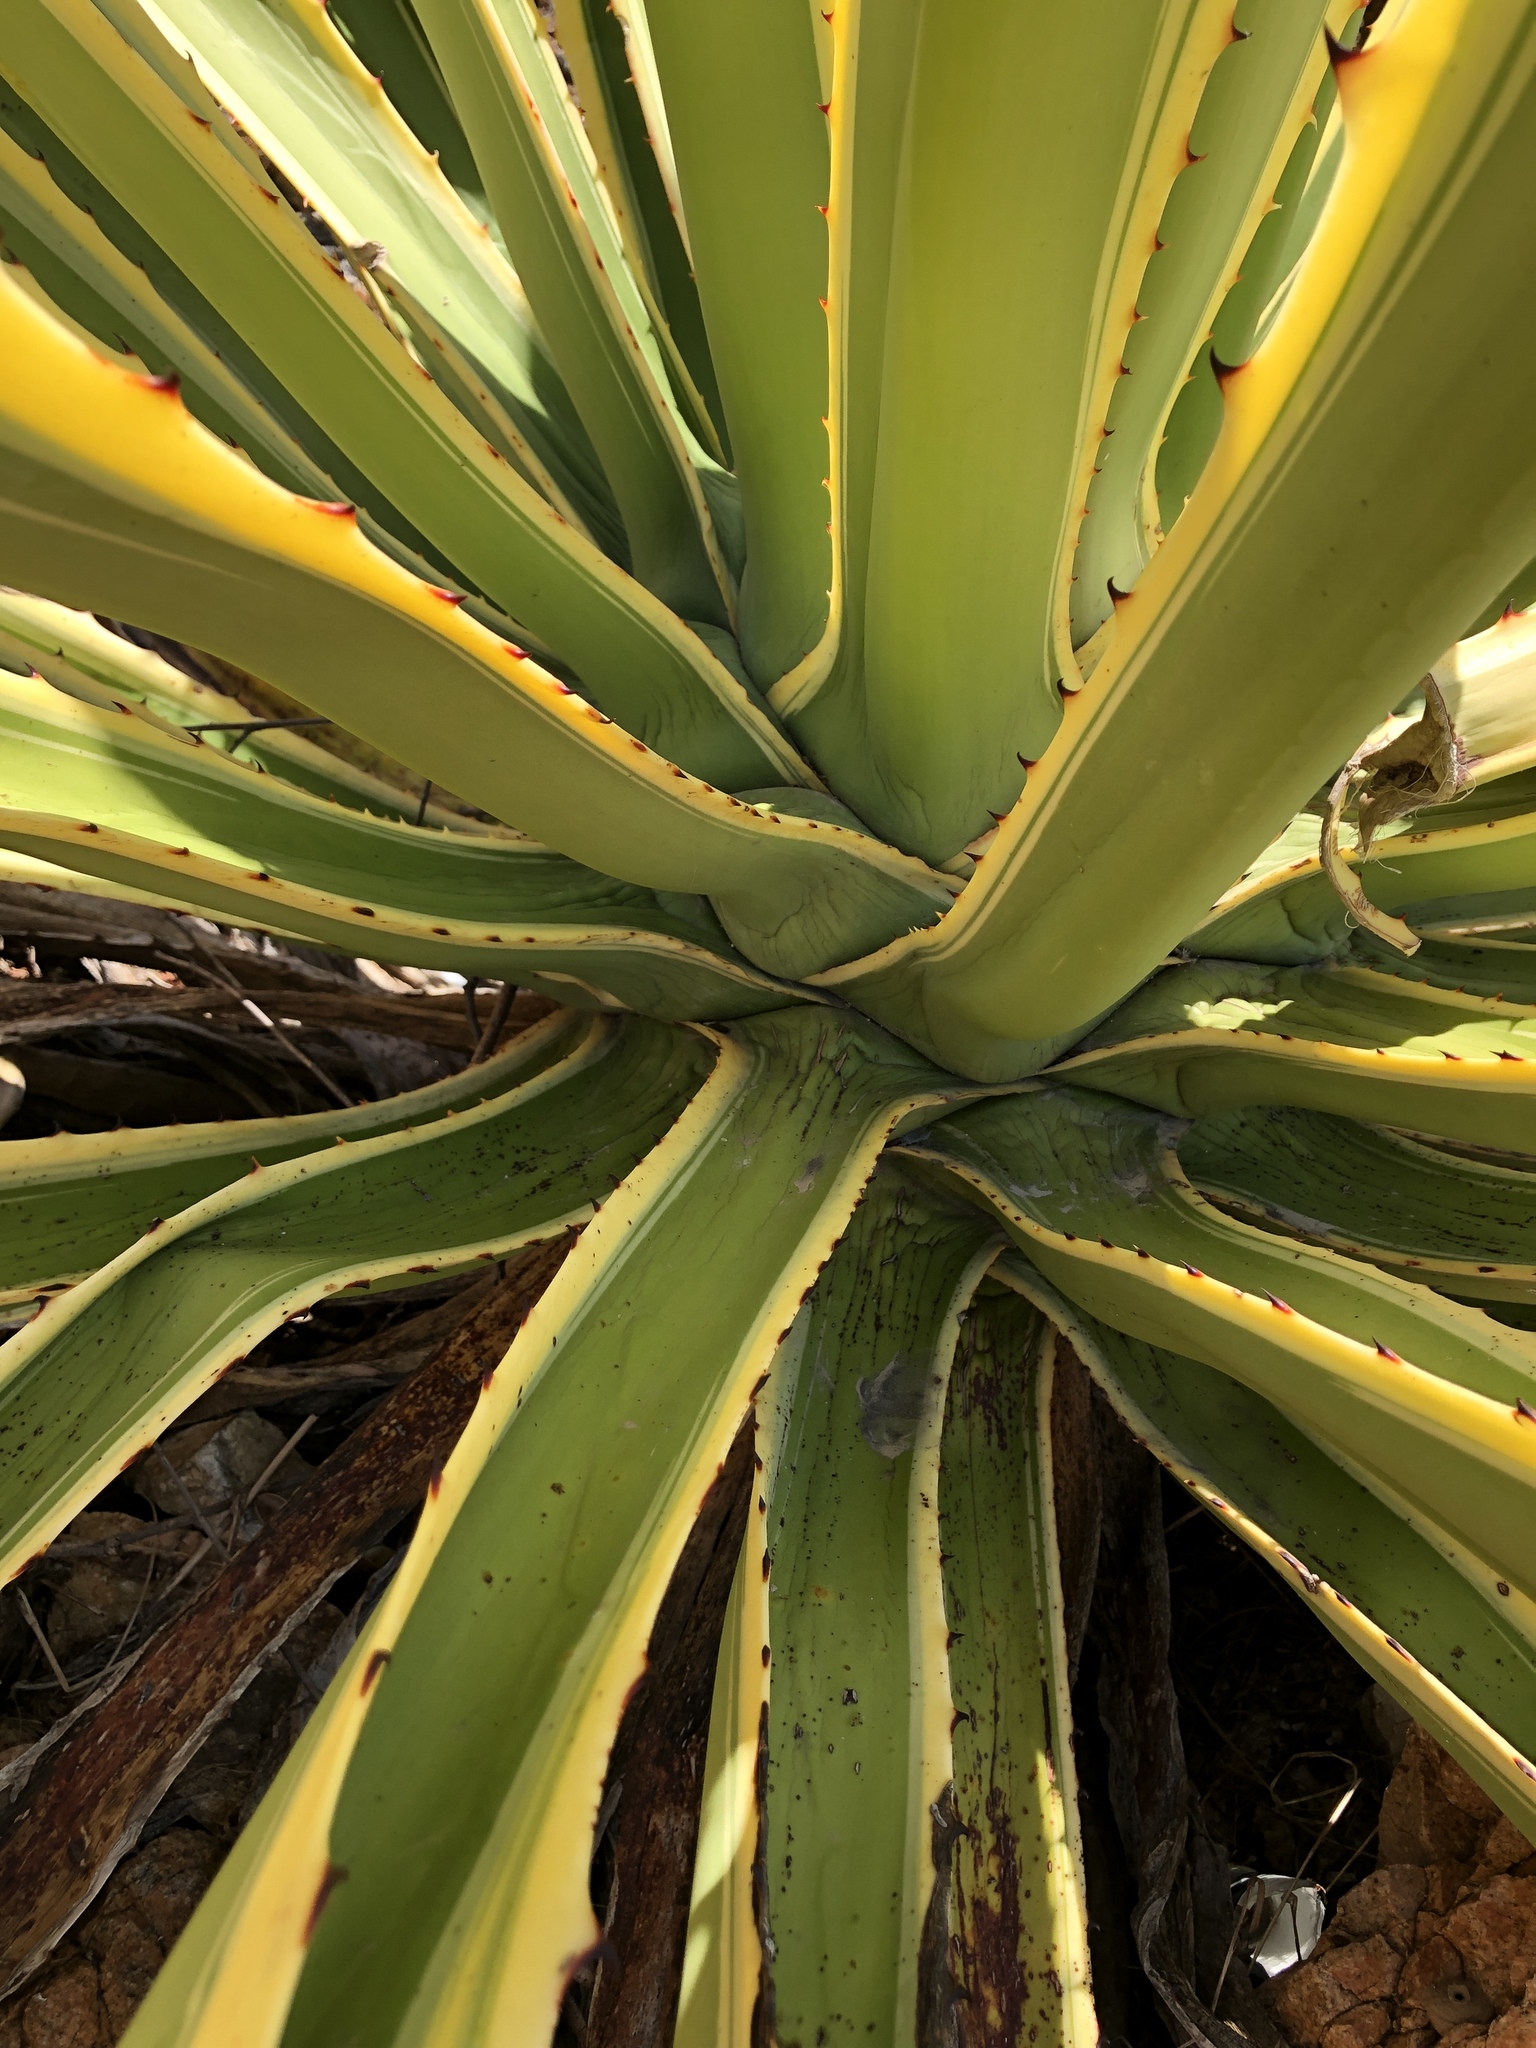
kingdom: Plantae
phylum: Tracheophyta
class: Liliopsida
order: Asparagales
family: Asparagaceae
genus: Furcraea
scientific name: Furcraea selloana
